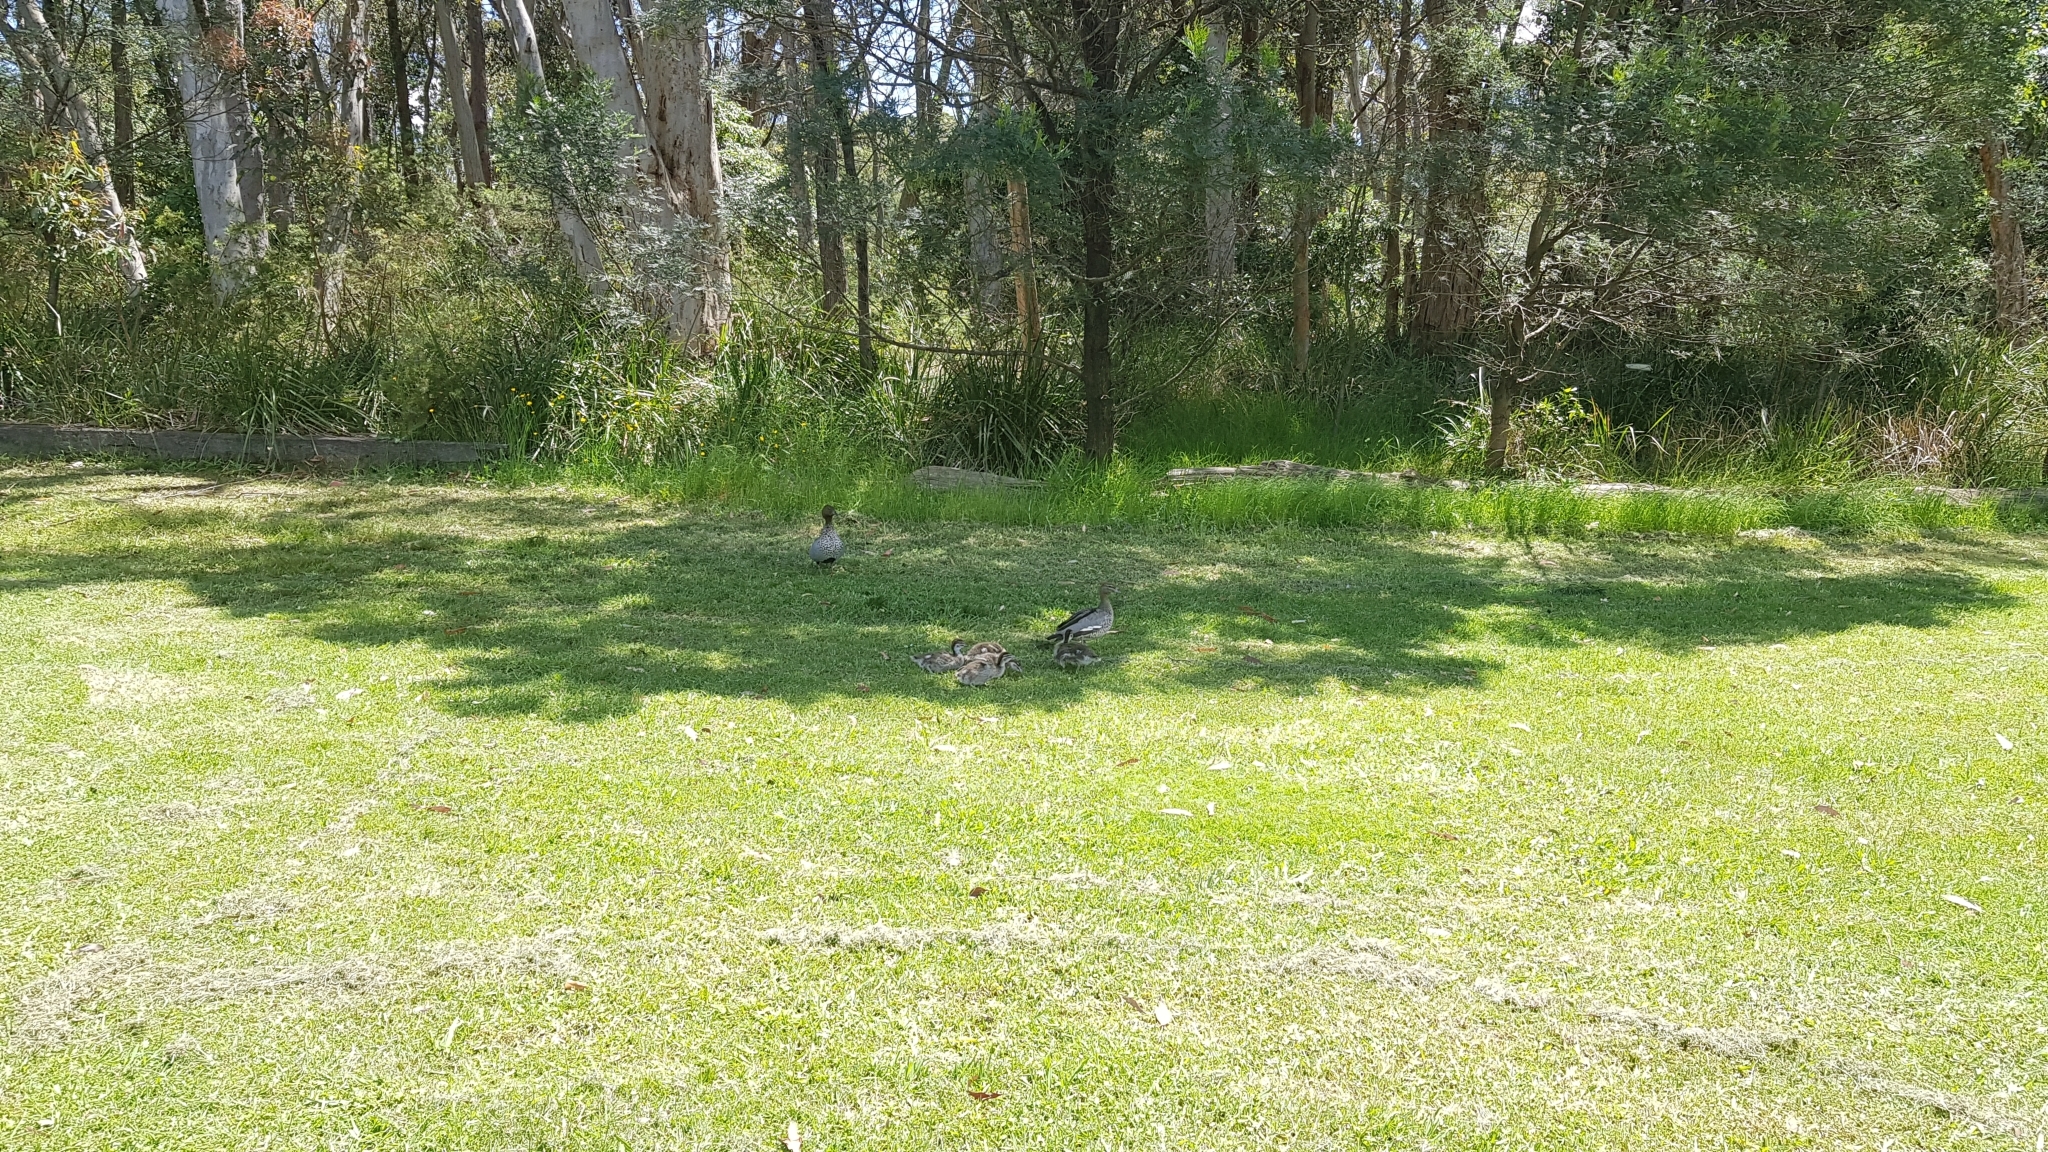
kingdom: Animalia
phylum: Chordata
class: Aves
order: Anseriformes
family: Anatidae
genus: Chenonetta
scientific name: Chenonetta jubata
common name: Maned duck
